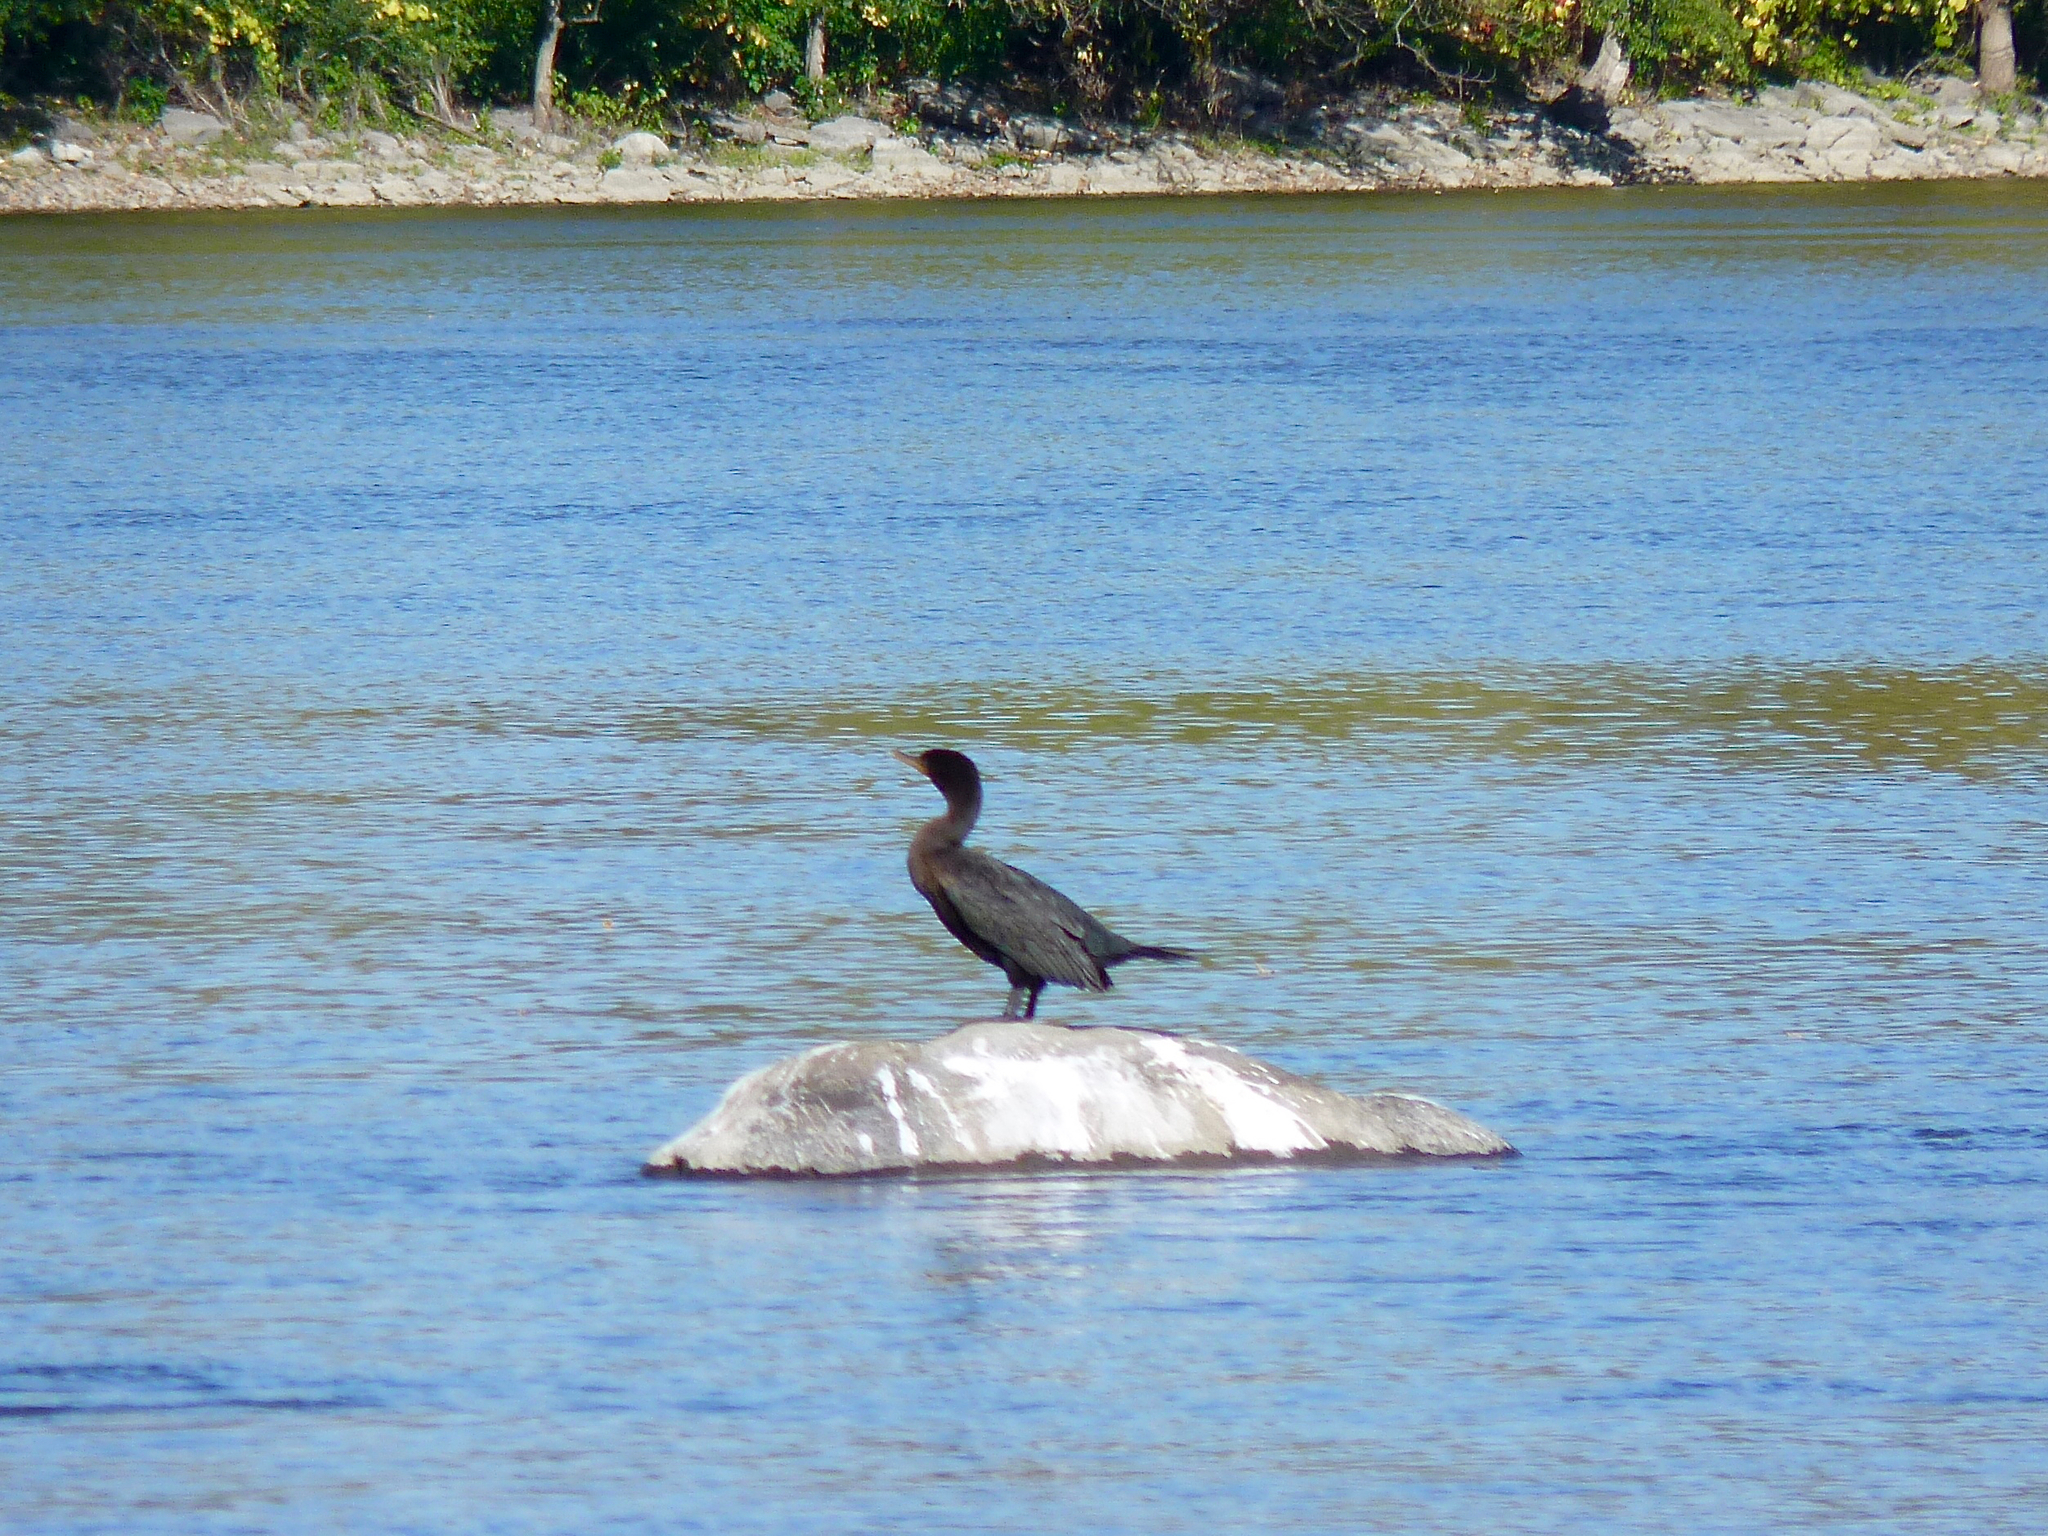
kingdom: Animalia
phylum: Chordata
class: Aves
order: Suliformes
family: Phalacrocoracidae
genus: Phalacrocorax
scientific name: Phalacrocorax auritus
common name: Double-crested cormorant
